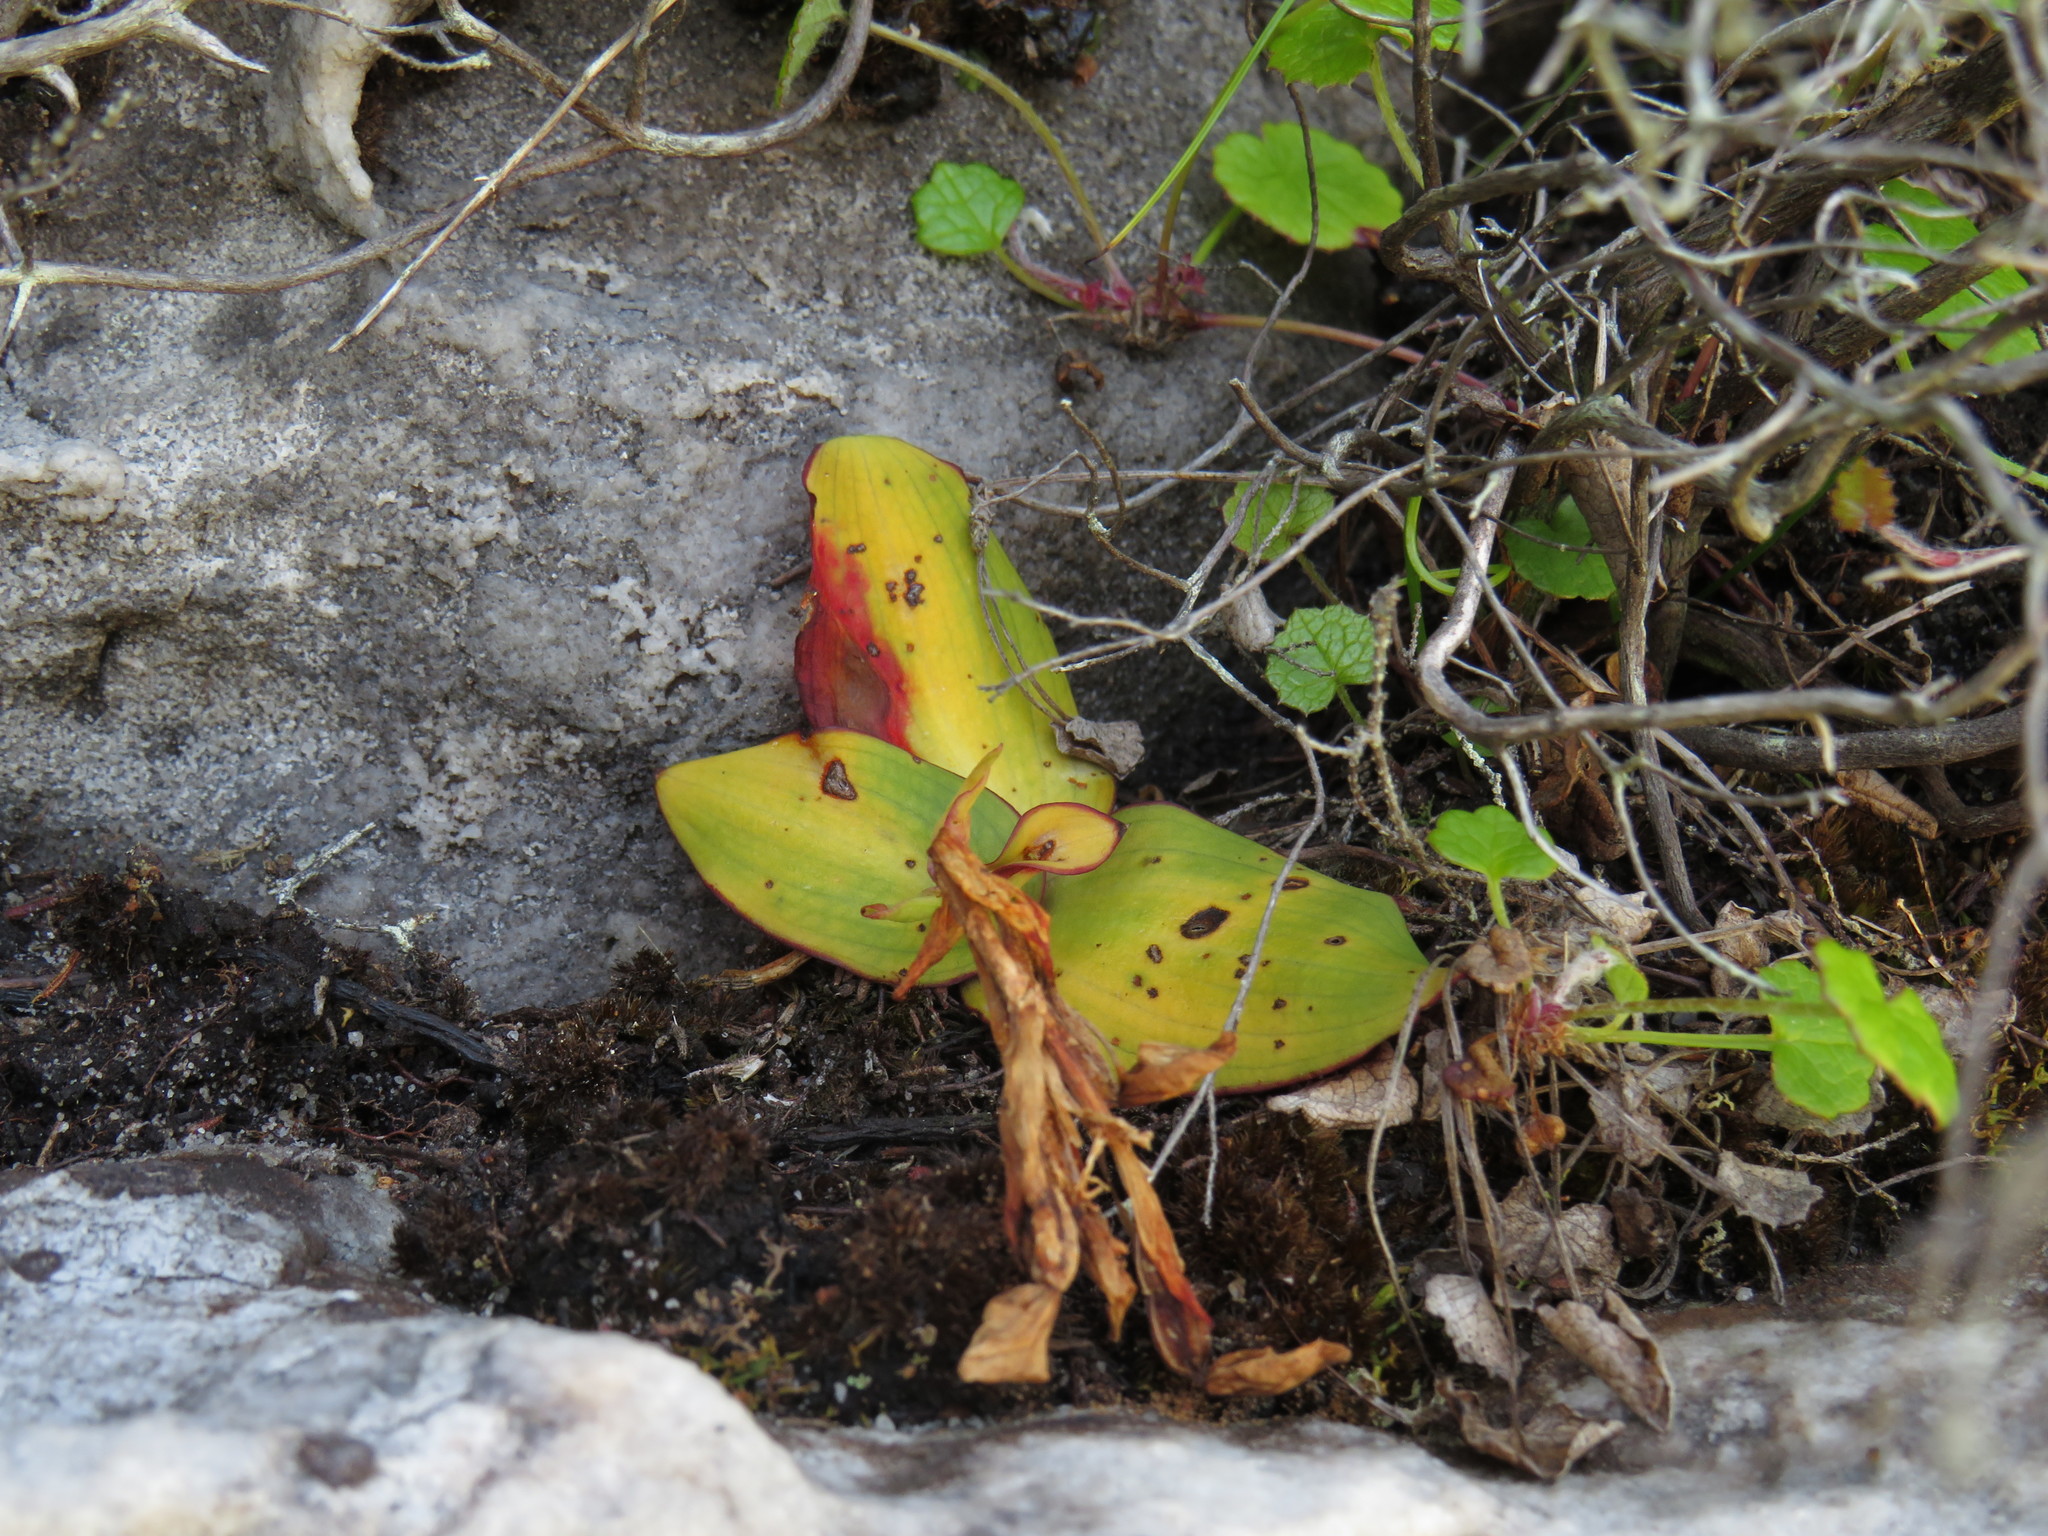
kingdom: Plantae
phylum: Tracheophyta
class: Liliopsida
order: Asparagales
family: Orchidaceae
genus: Disa
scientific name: Disa rosea
